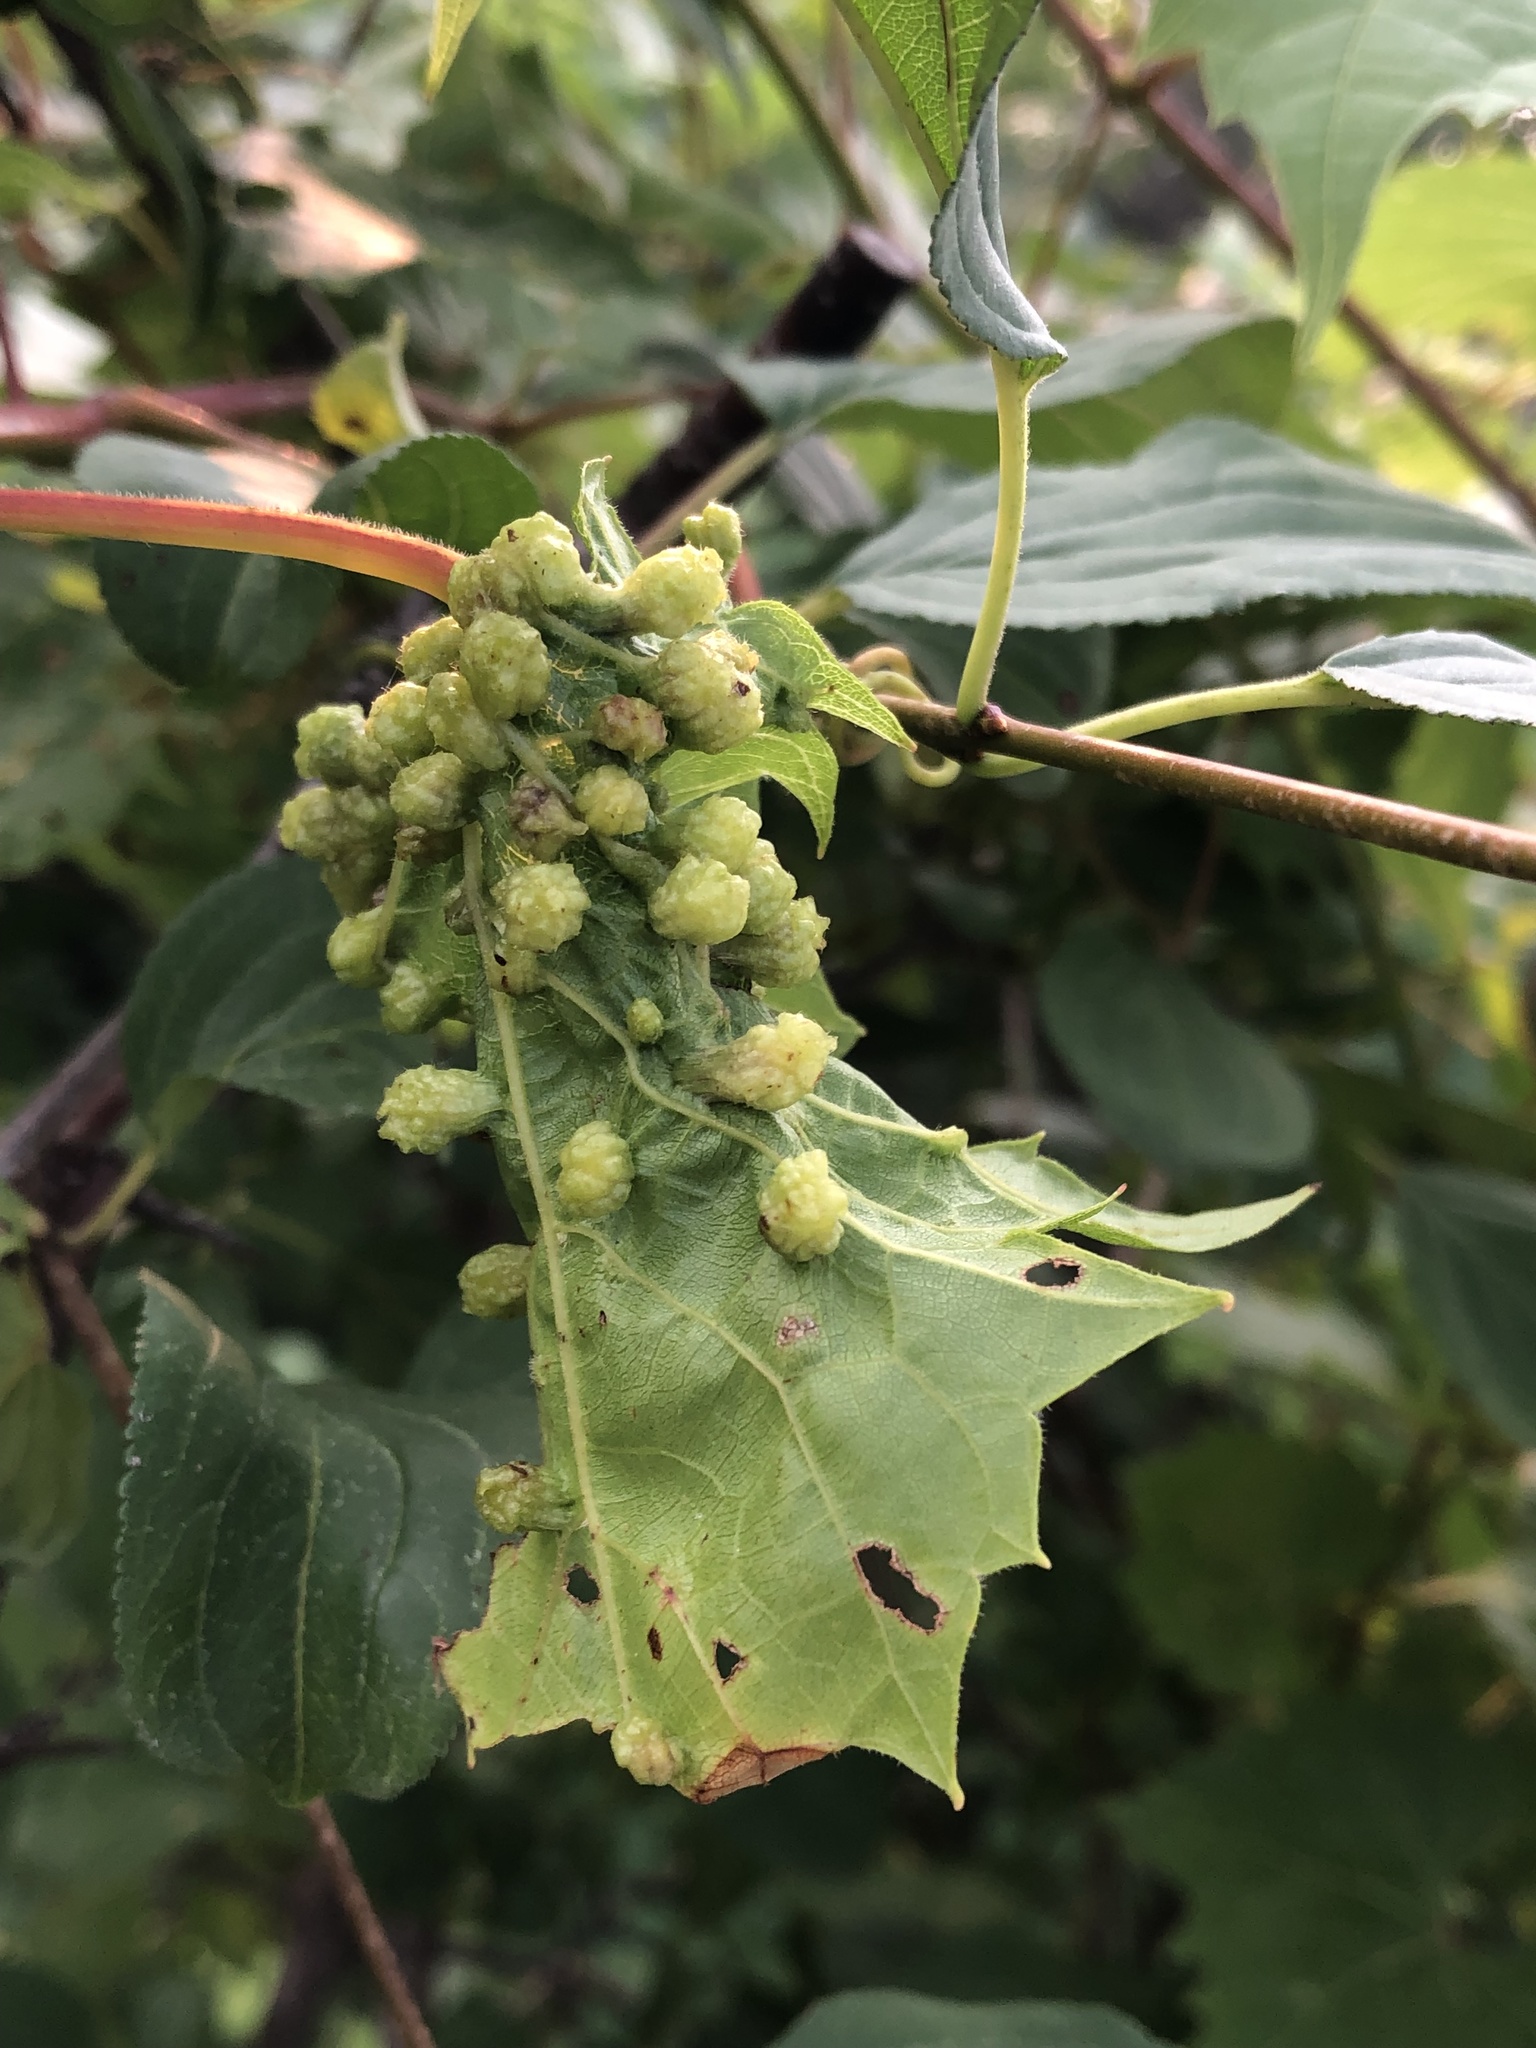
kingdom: Animalia
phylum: Arthropoda
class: Insecta
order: Hemiptera
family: Phylloxeridae
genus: Daktulosphaira
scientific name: Daktulosphaira vitifoliae
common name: Grape phylloxera
